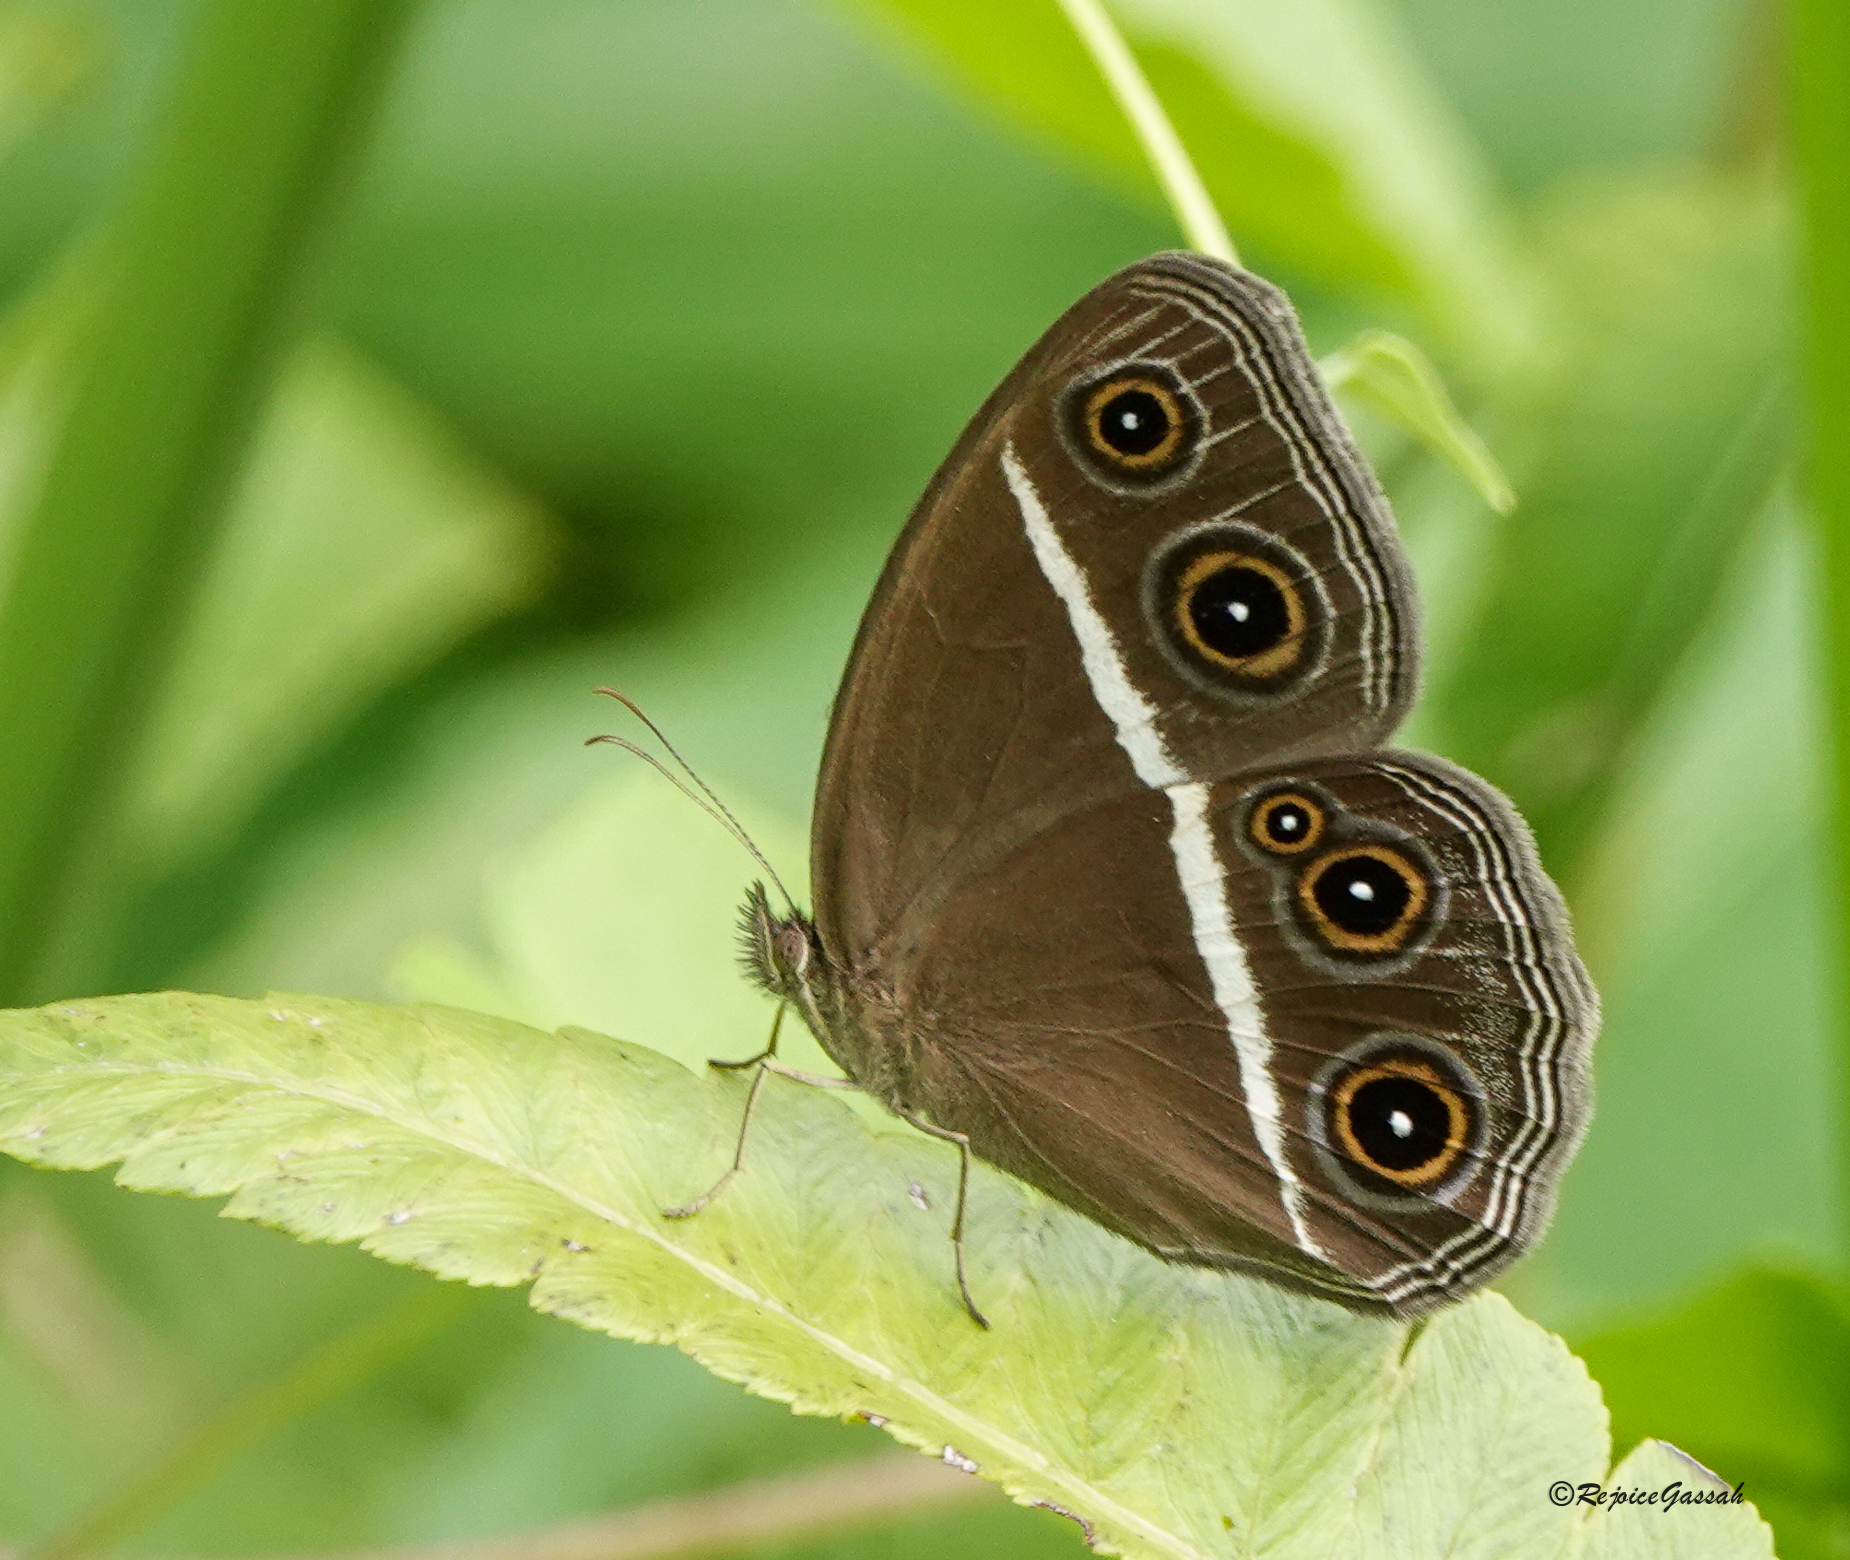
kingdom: Animalia
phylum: Arthropoda
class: Insecta
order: Lepidoptera
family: Nymphalidae
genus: Orsotriaena
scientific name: Orsotriaena medus
